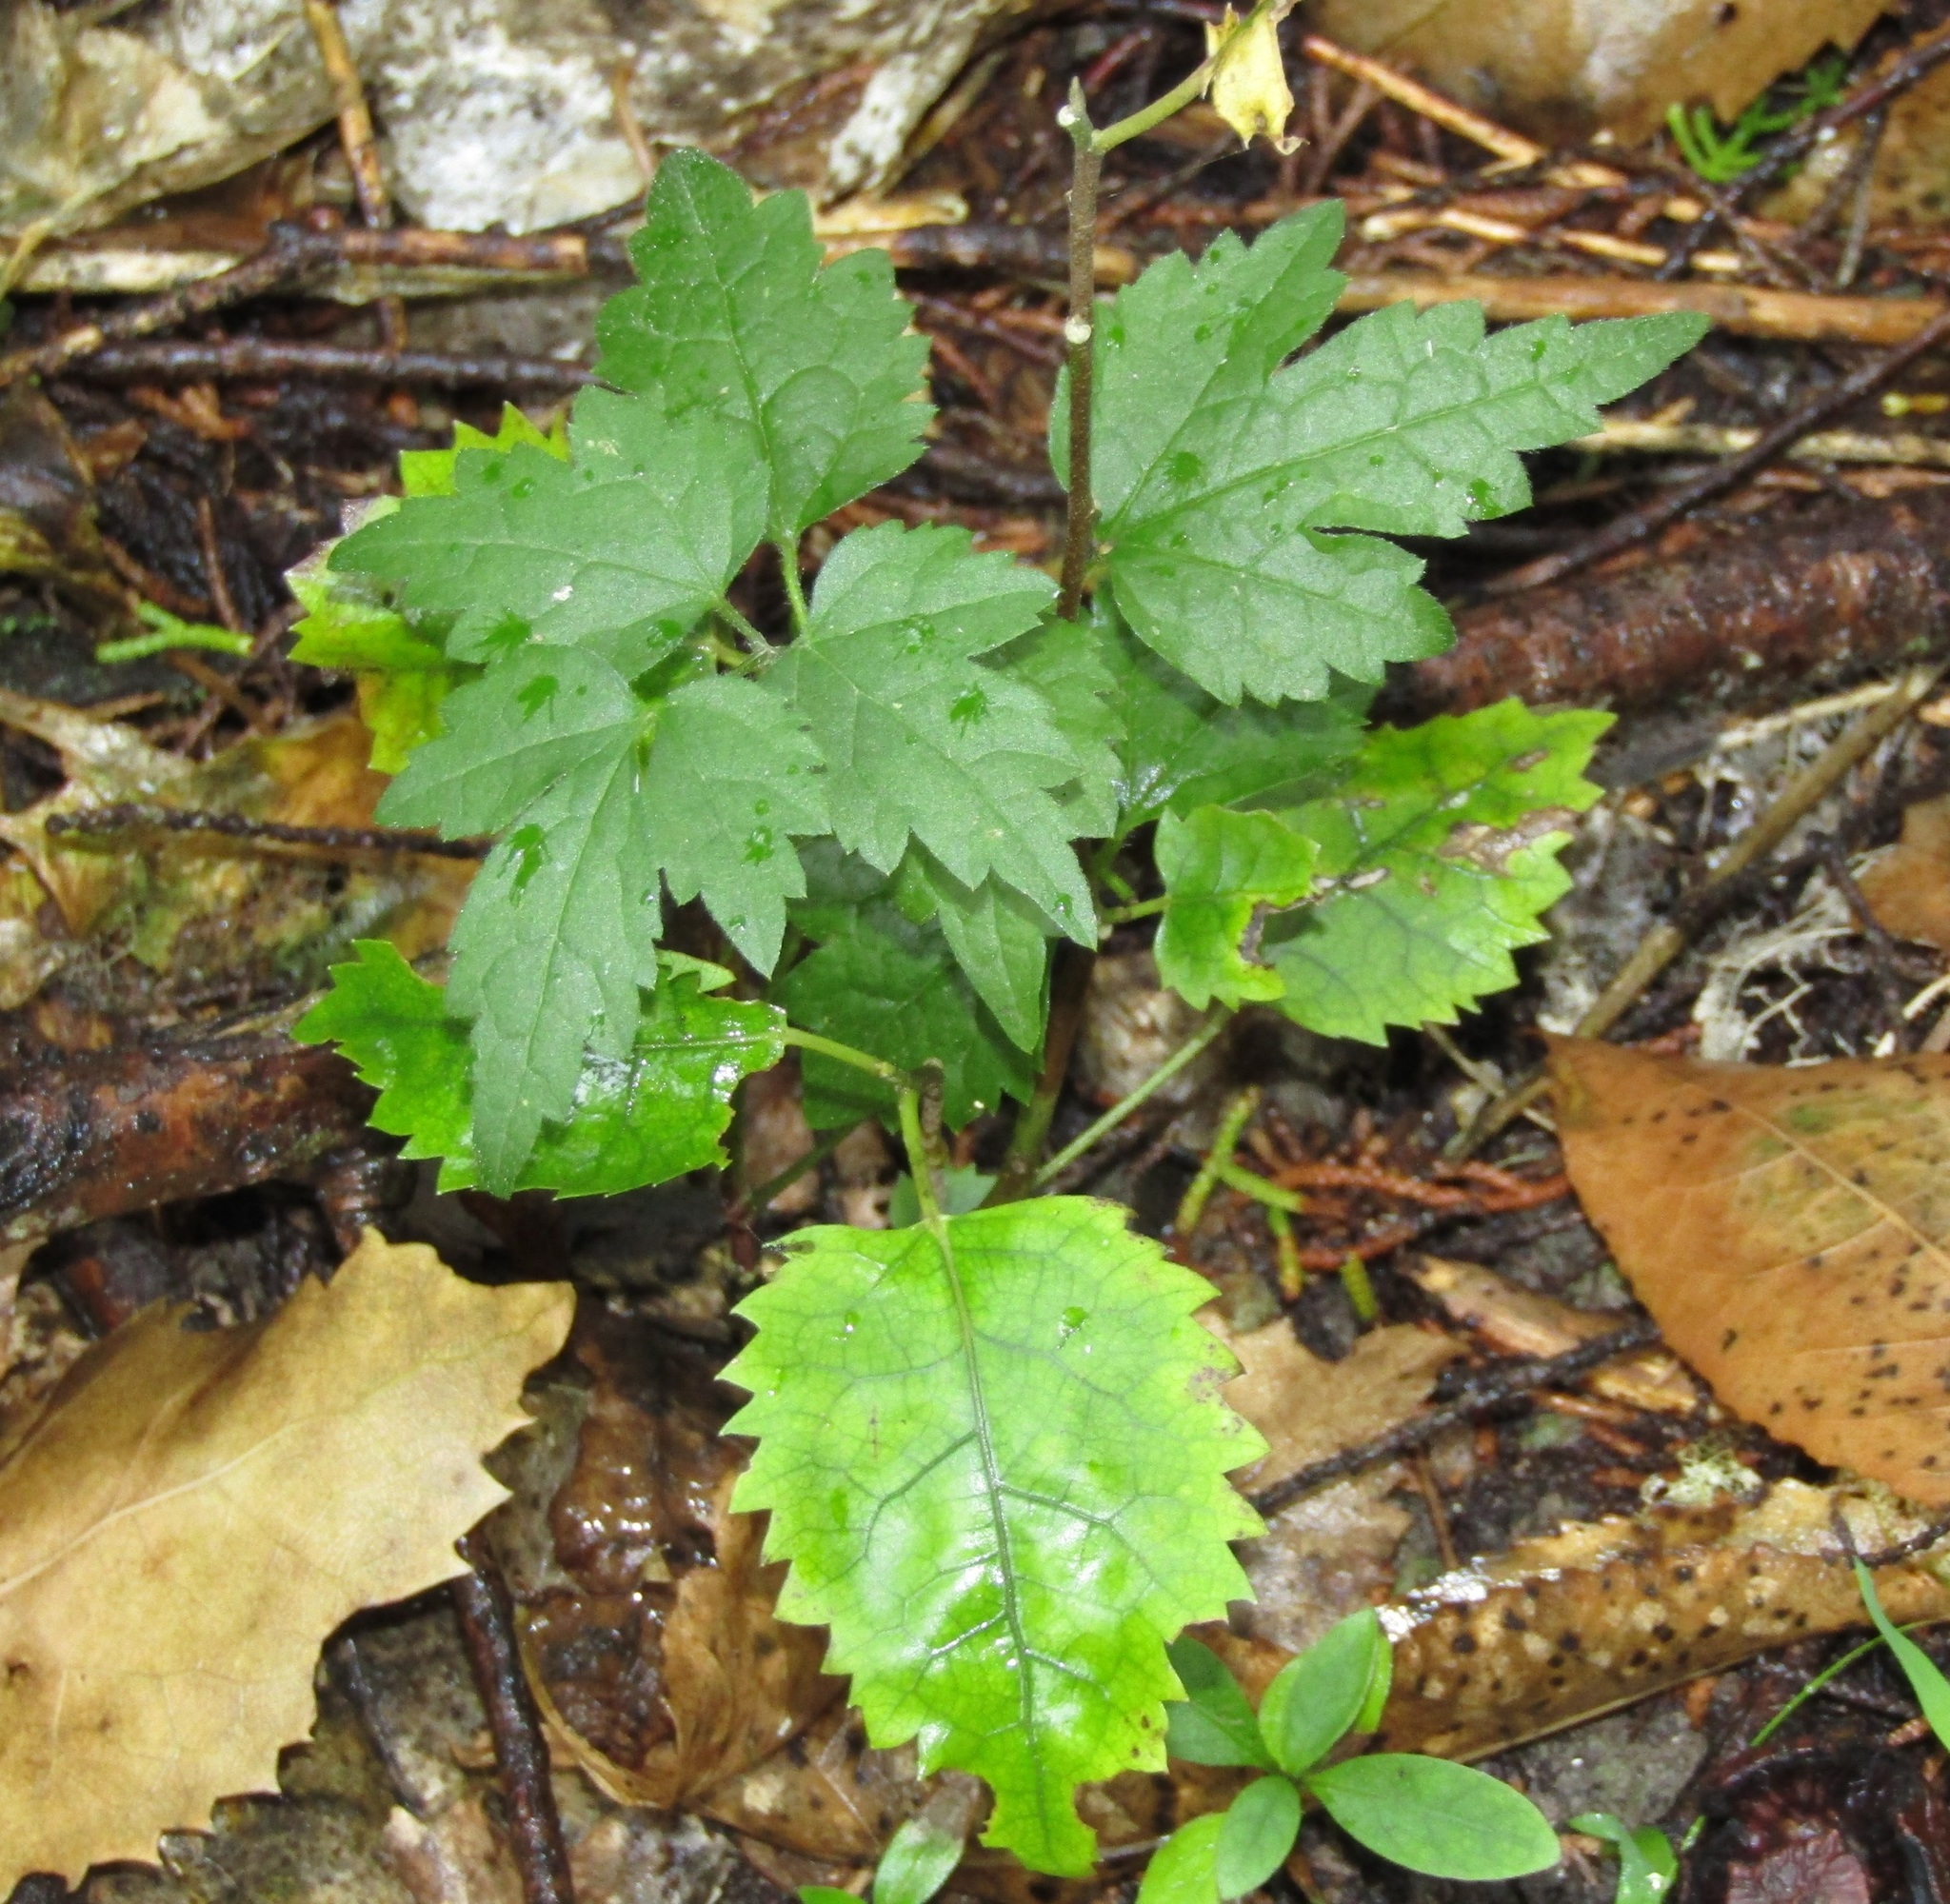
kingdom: Plantae
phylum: Tracheophyta
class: Magnoliopsida
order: Ranunculales
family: Ranunculaceae
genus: Clematis
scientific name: Clematis vitalba
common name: Evergreen clematis
